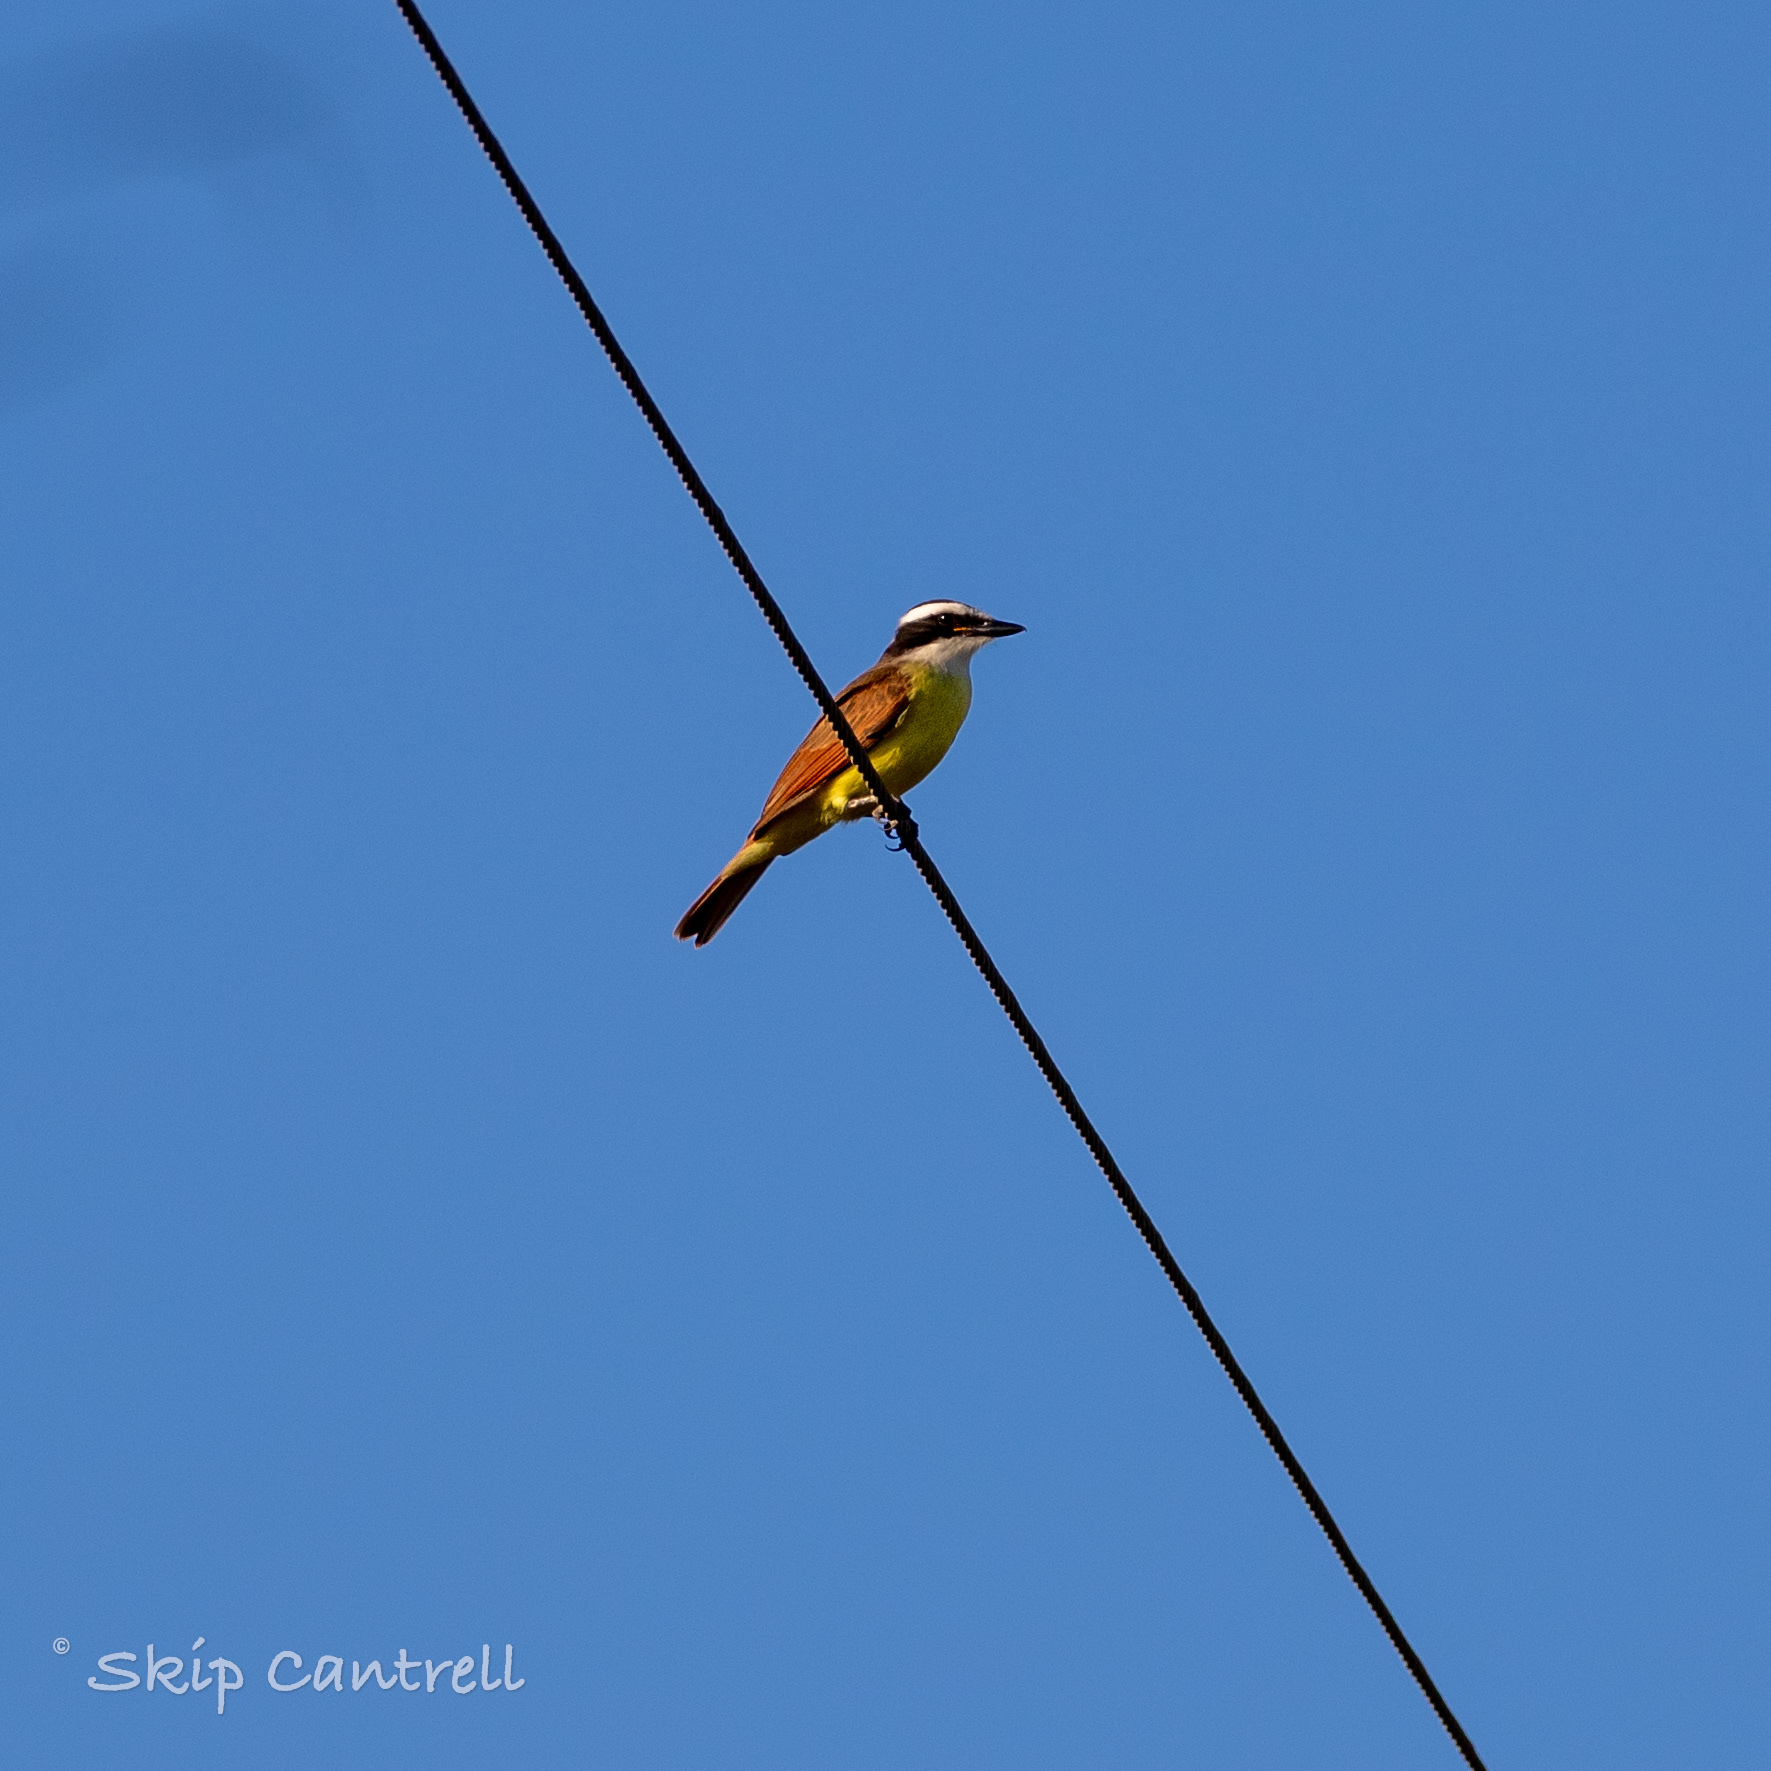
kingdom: Animalia
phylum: Chordata
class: Aves
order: Passeriformes
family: Tyrannidae
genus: Pitangus
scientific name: Pitangus sulphuratus
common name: Great kiskadee
